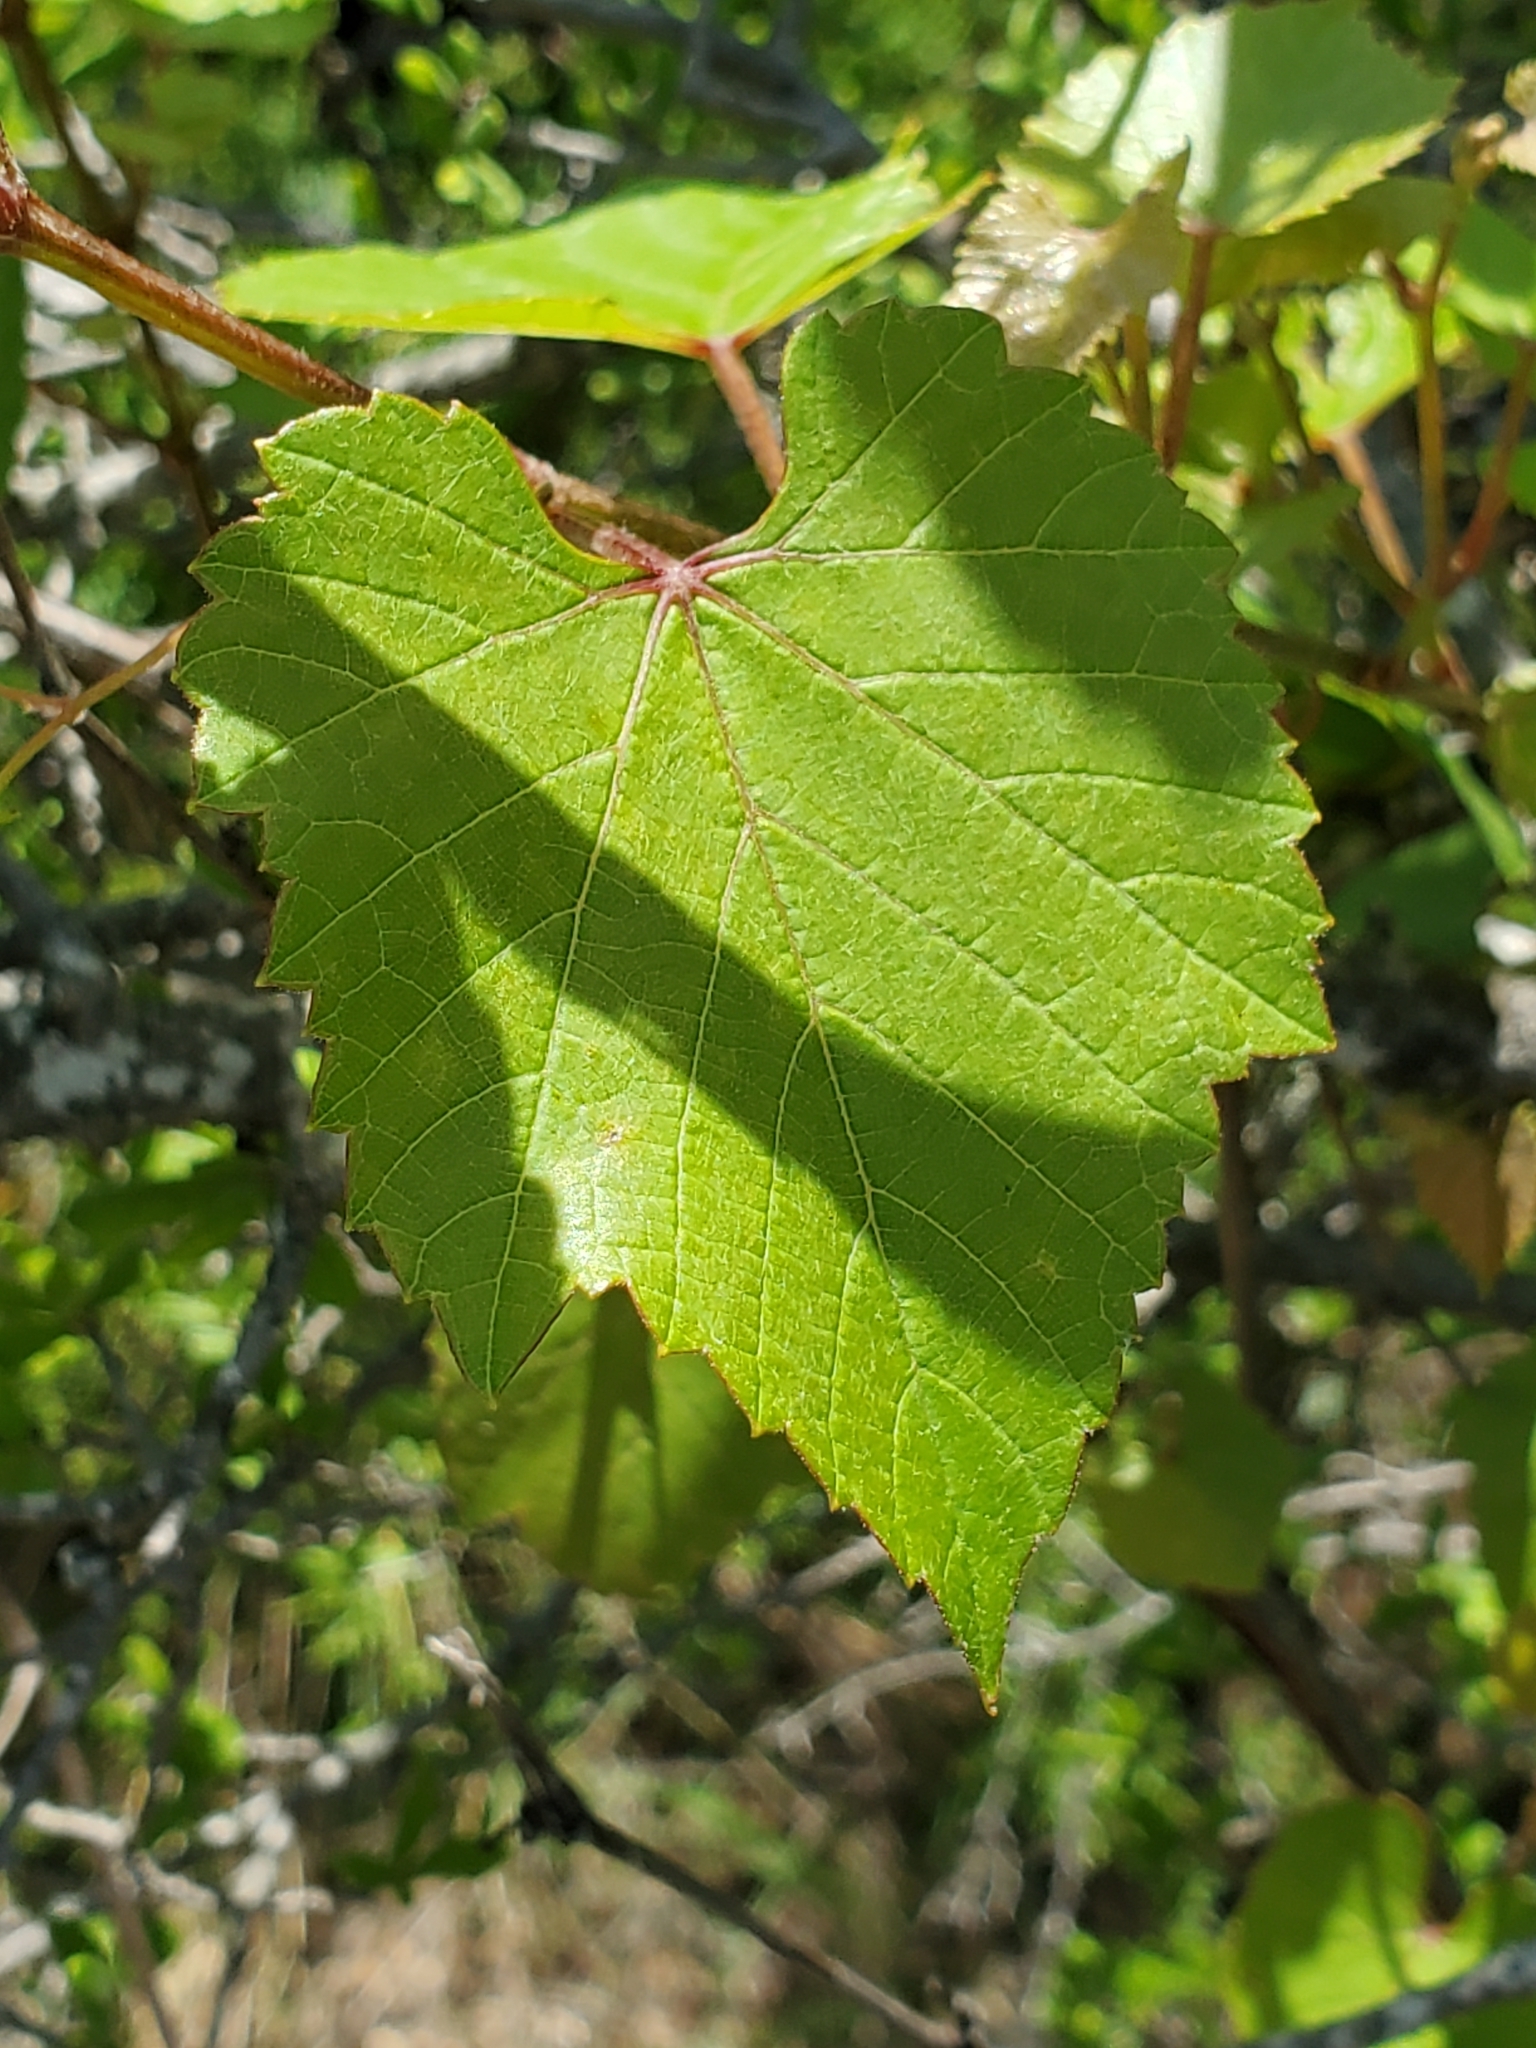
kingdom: Plantae
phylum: Tracheophyta
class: Magnoliopsida
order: Vitales
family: Vitaceae
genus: Vitis
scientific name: Vitis cinerea
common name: Ashy grape
